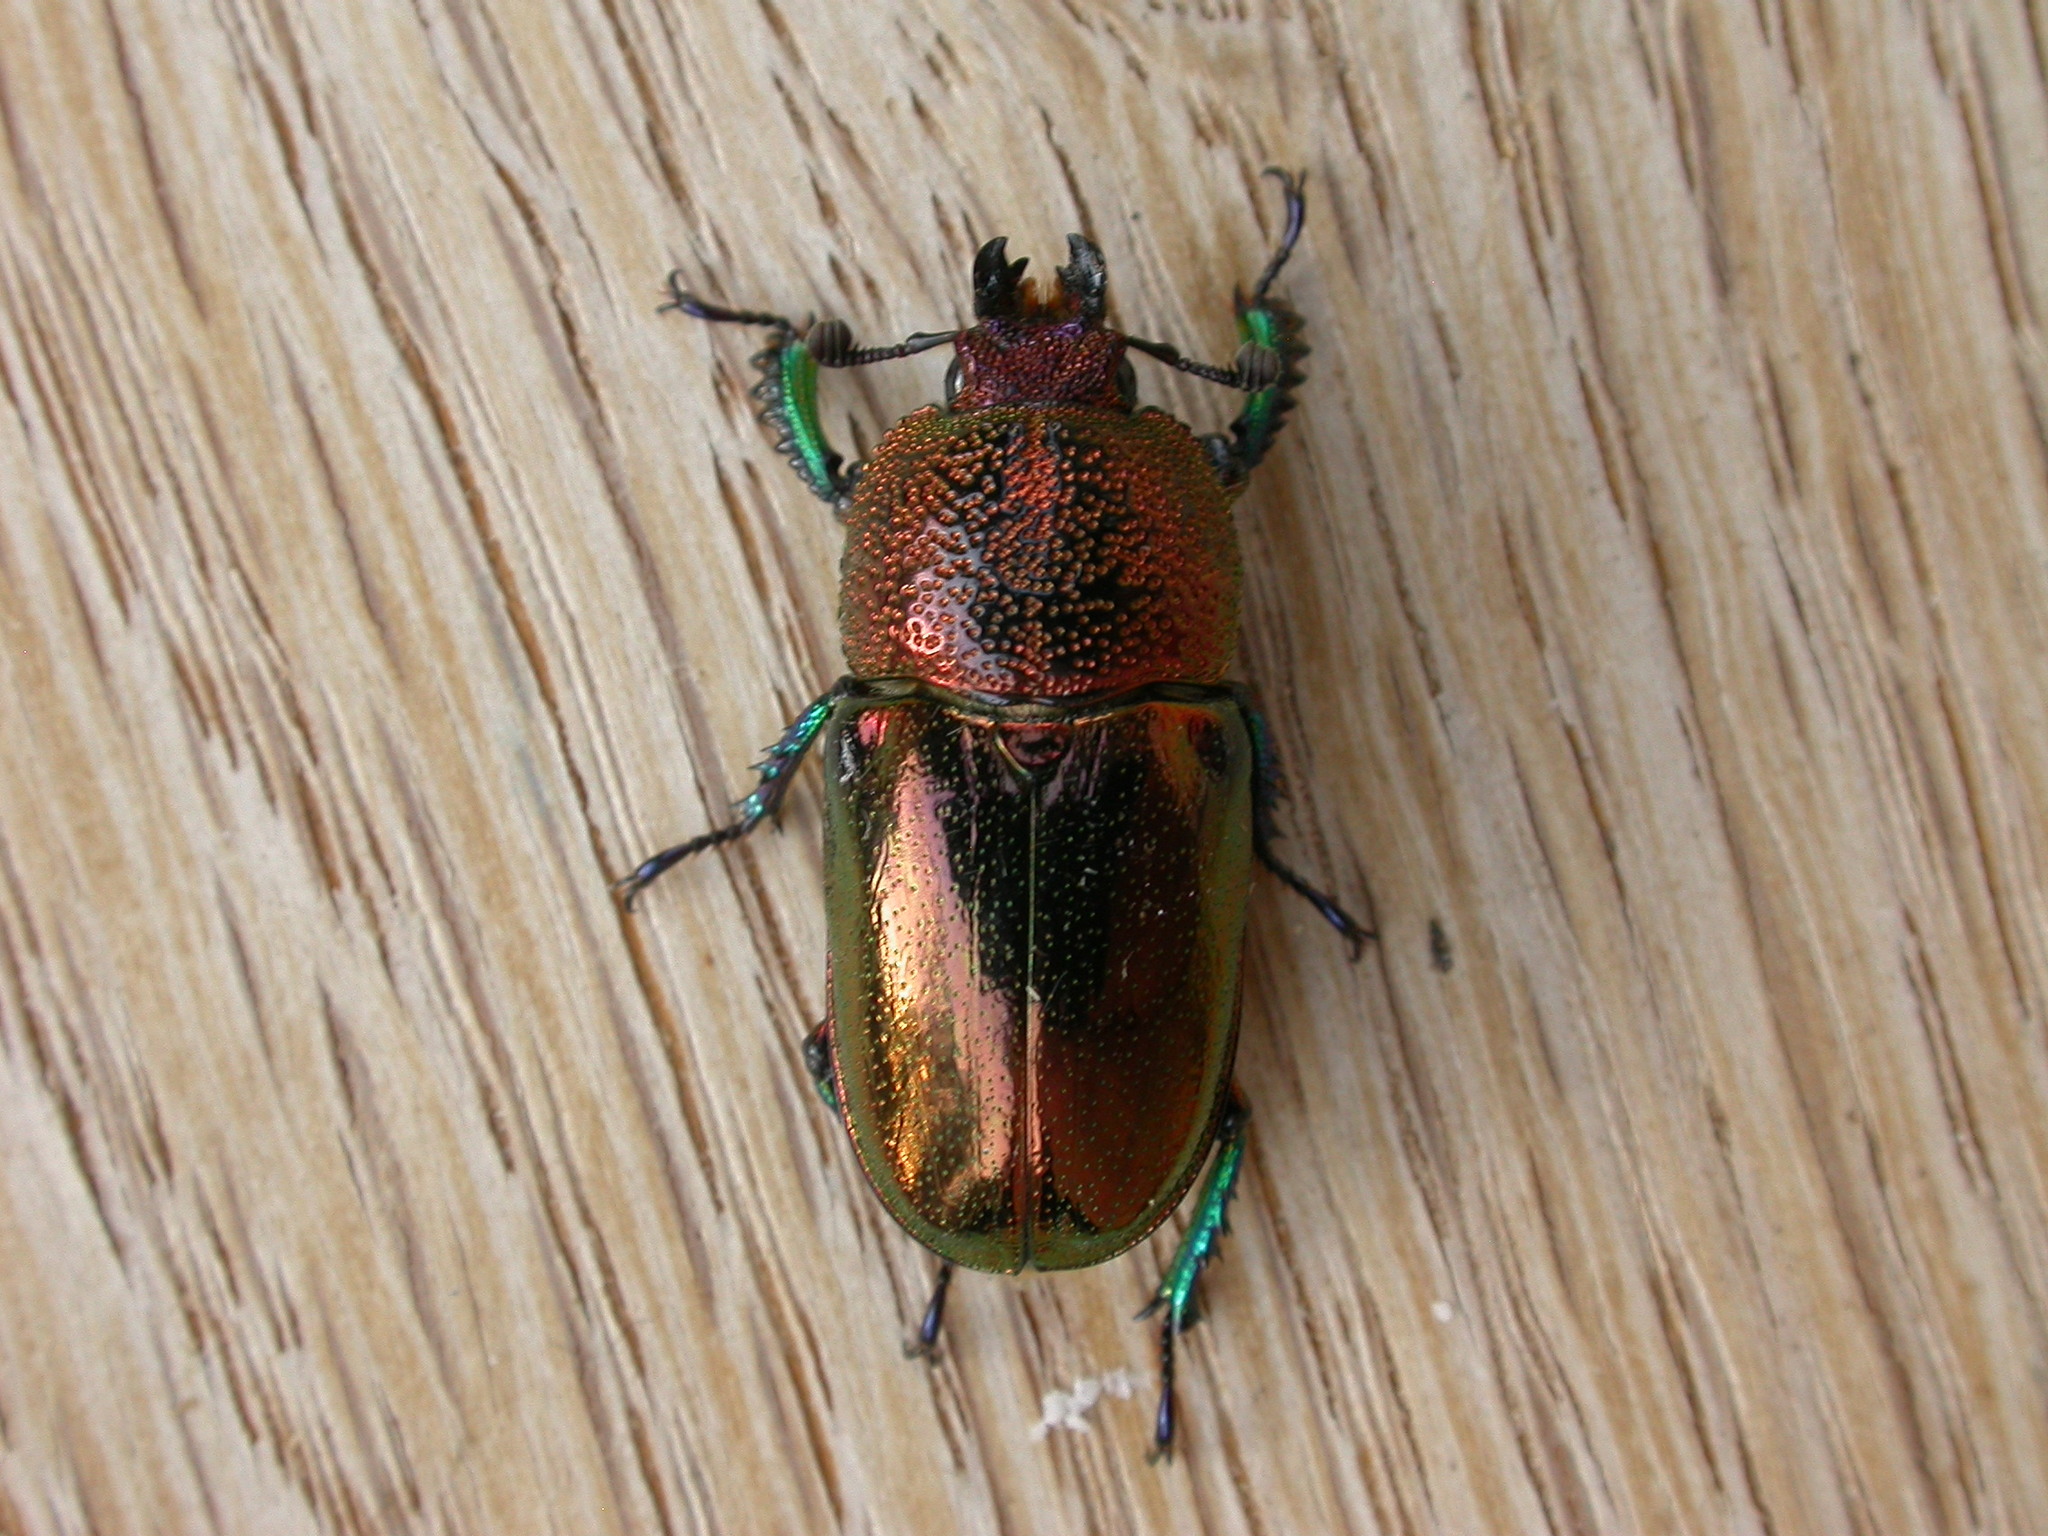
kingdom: Animalia
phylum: Arthropoda
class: Insecta
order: Coleoptera
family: Lucanidae
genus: Lamprima
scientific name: Lamprima aurata
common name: Golden stag beetle
